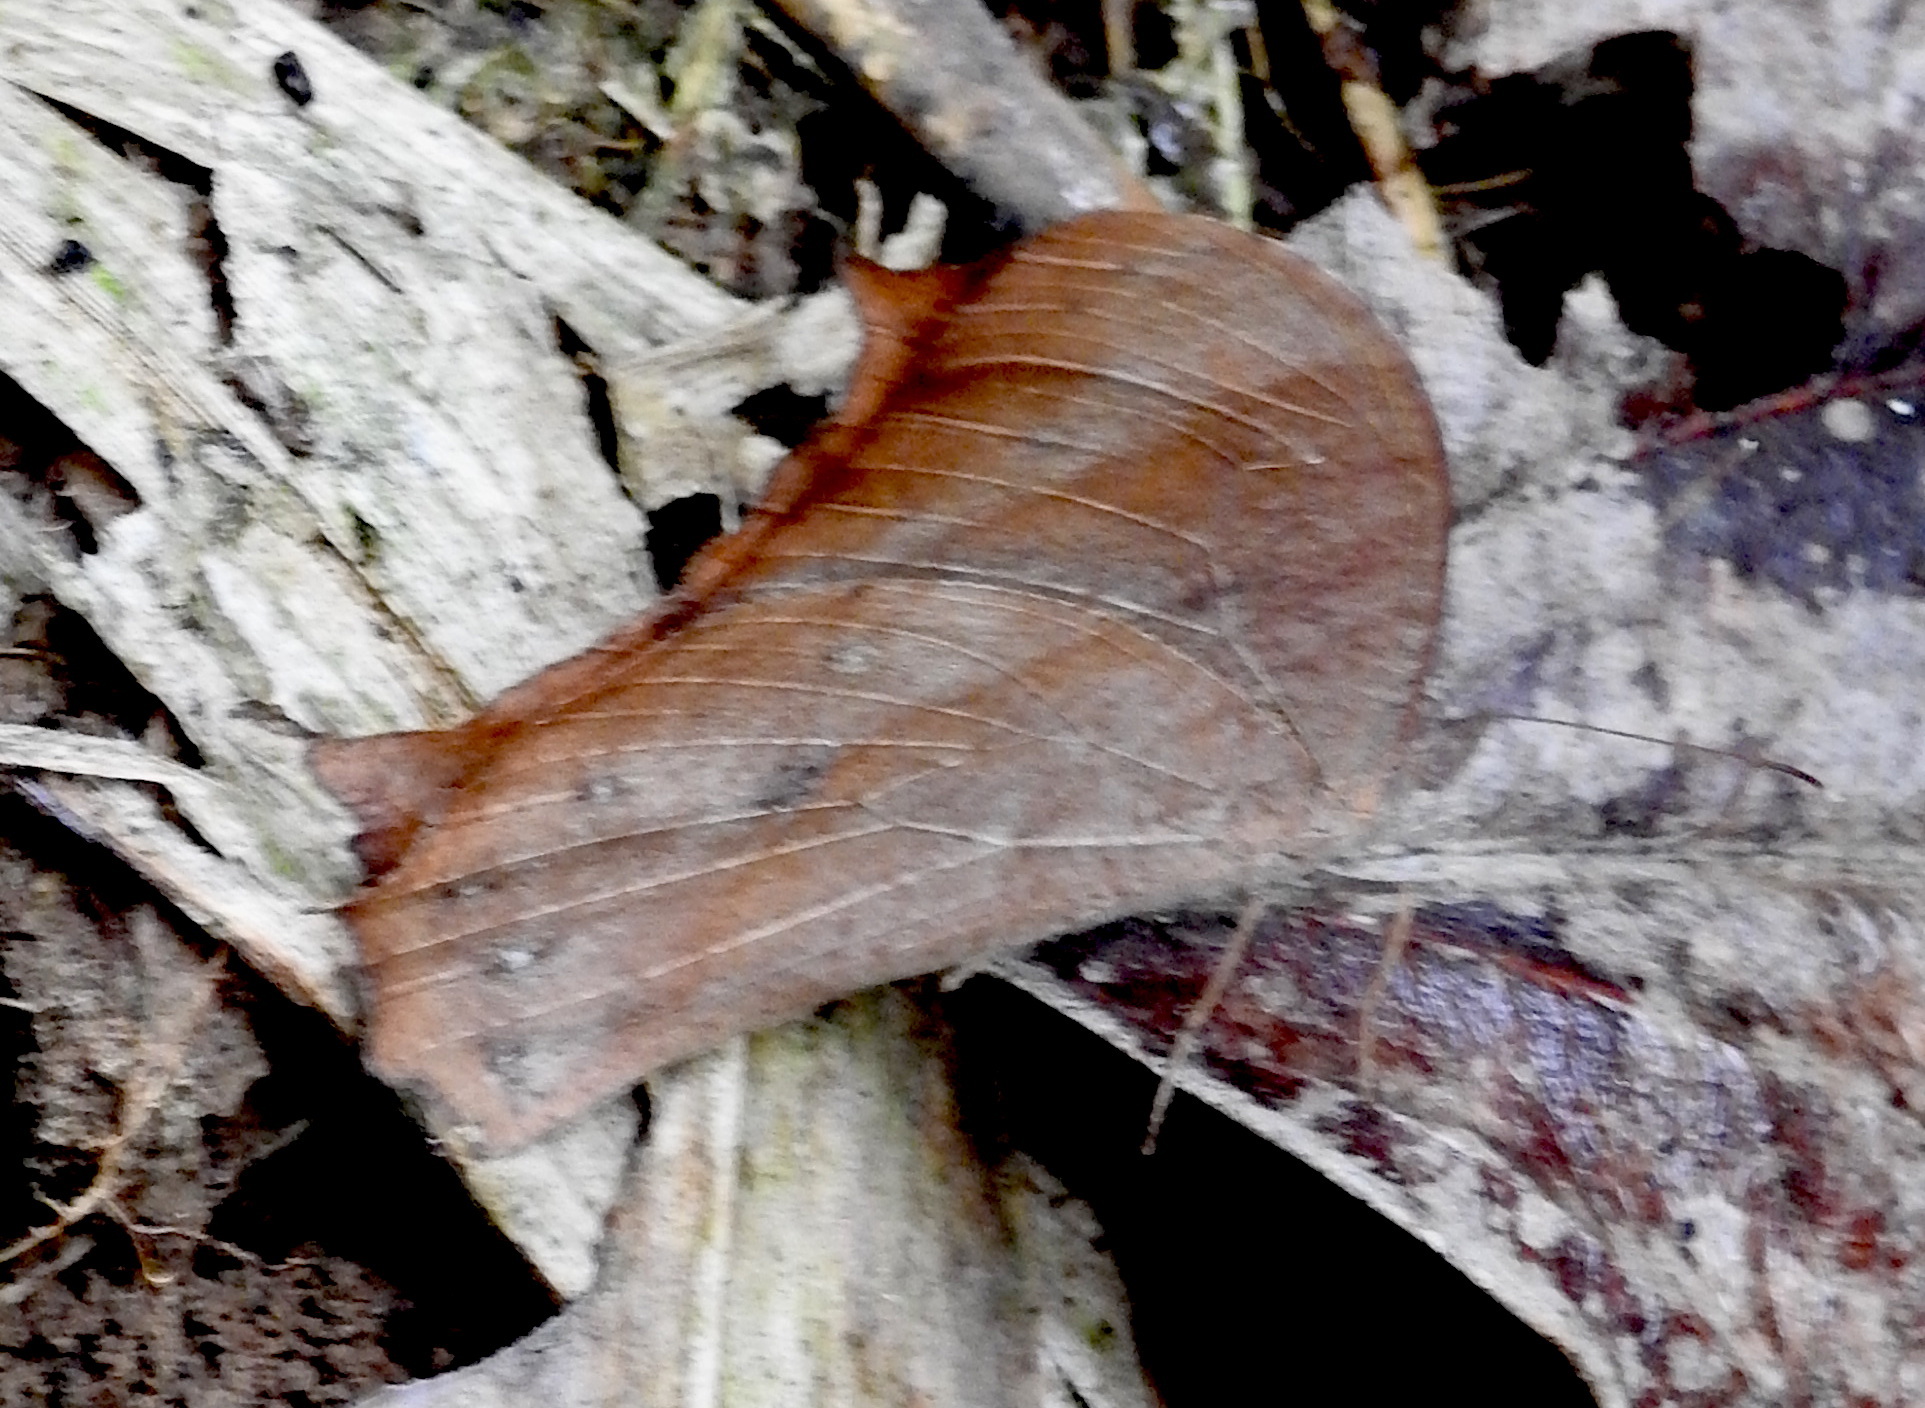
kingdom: Animalia
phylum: Arthropoda
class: Insecta
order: Lepidoptera
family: Nymphalidae
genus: Melanitis
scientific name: Melanitis leda
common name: Twilight brown
